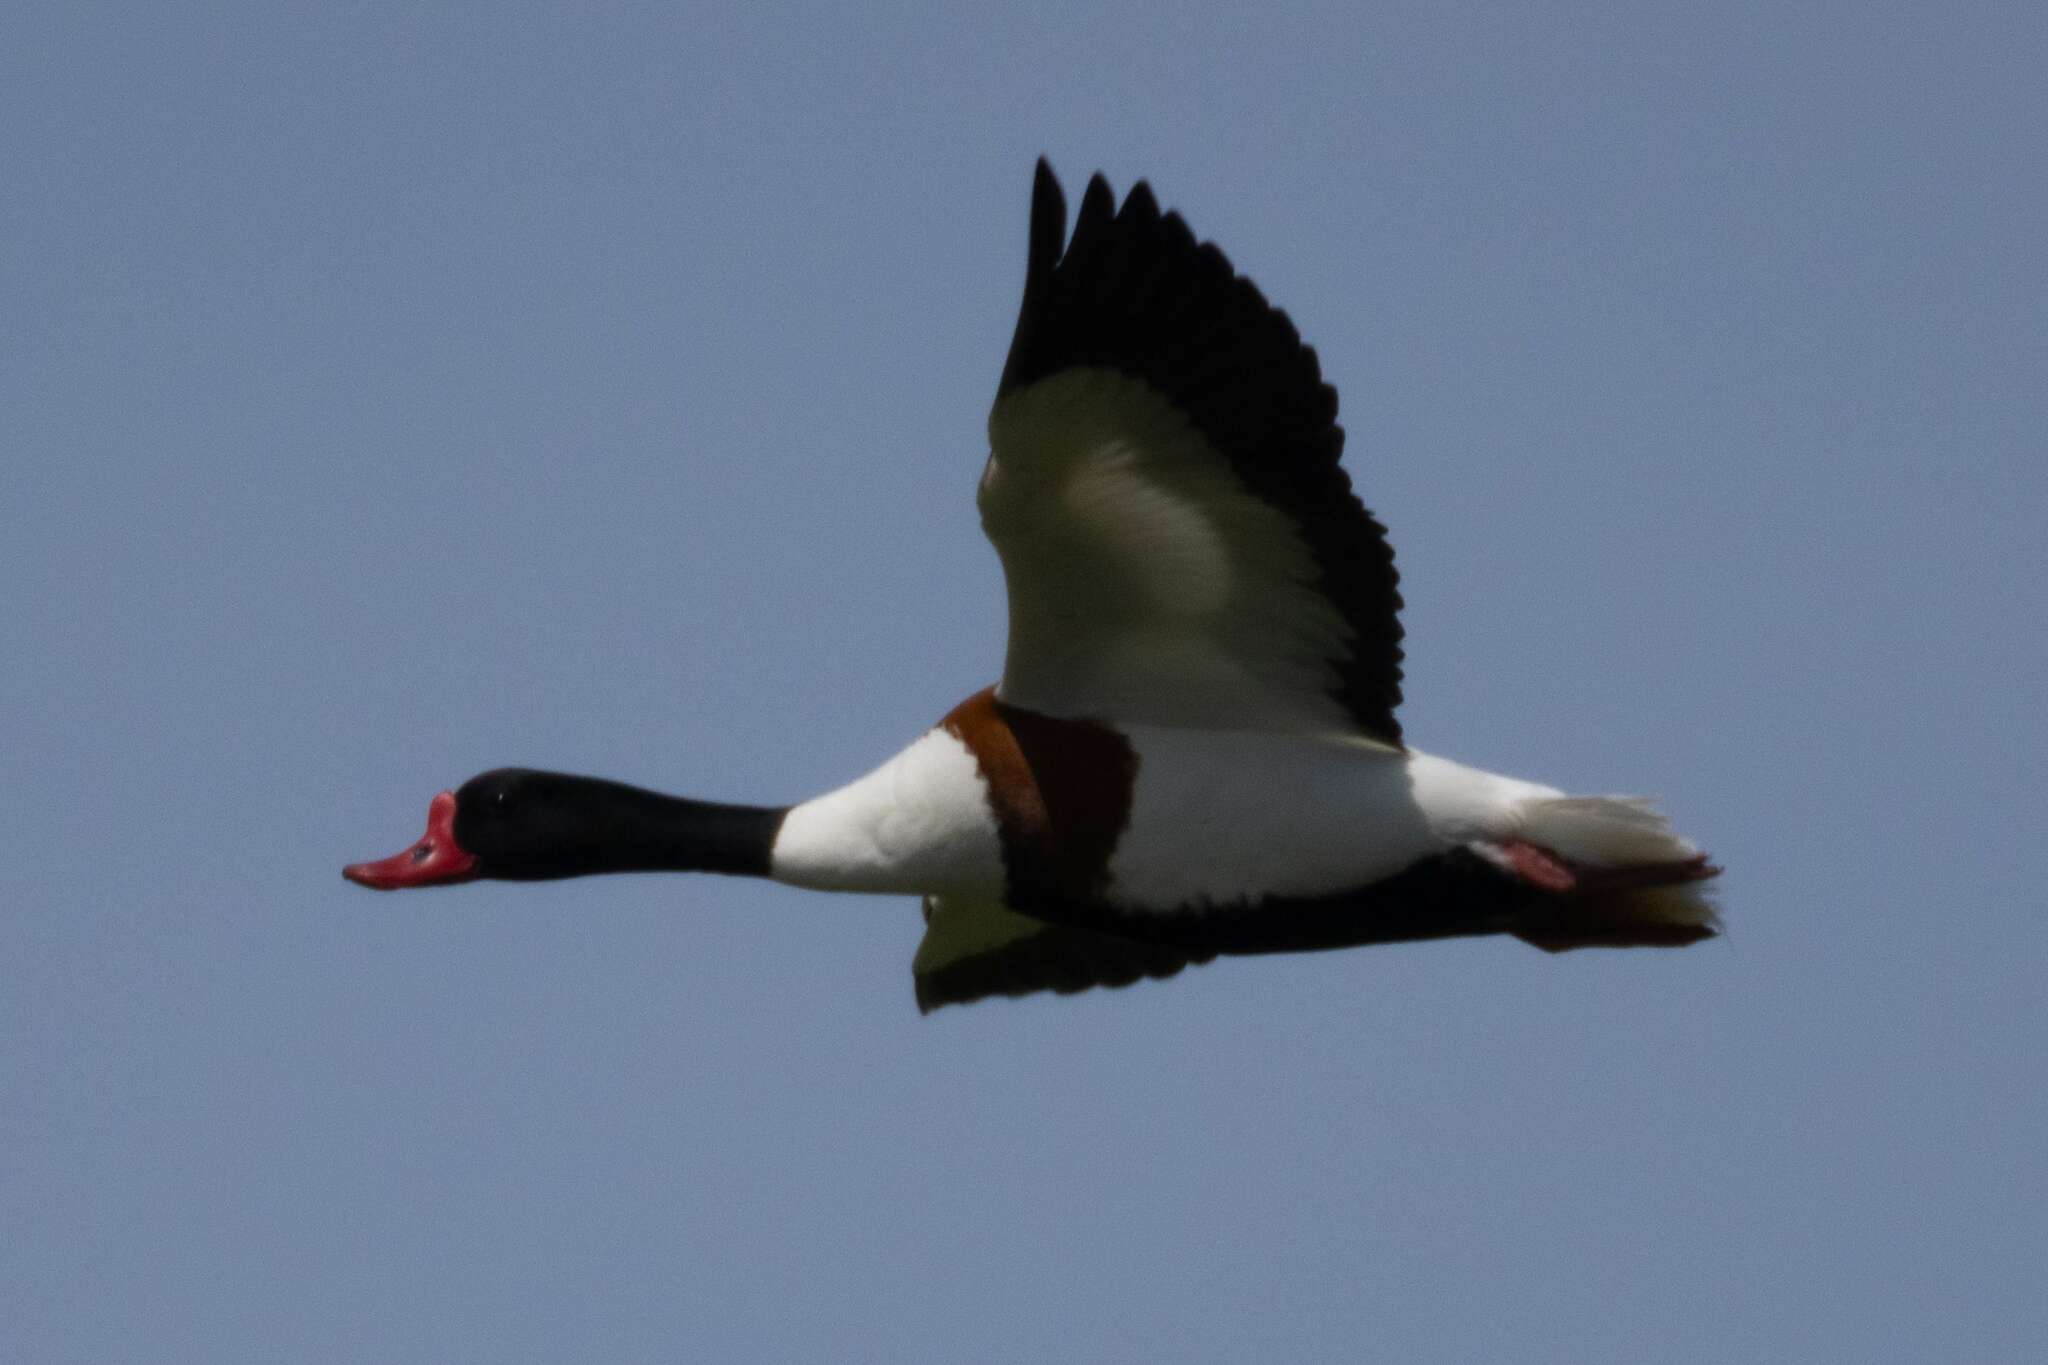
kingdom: Animalia
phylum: Chordata
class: Aves
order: Anseriformes
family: Anatidae
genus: Tadorna
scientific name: Tadorna tadorna
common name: Common shelduck
